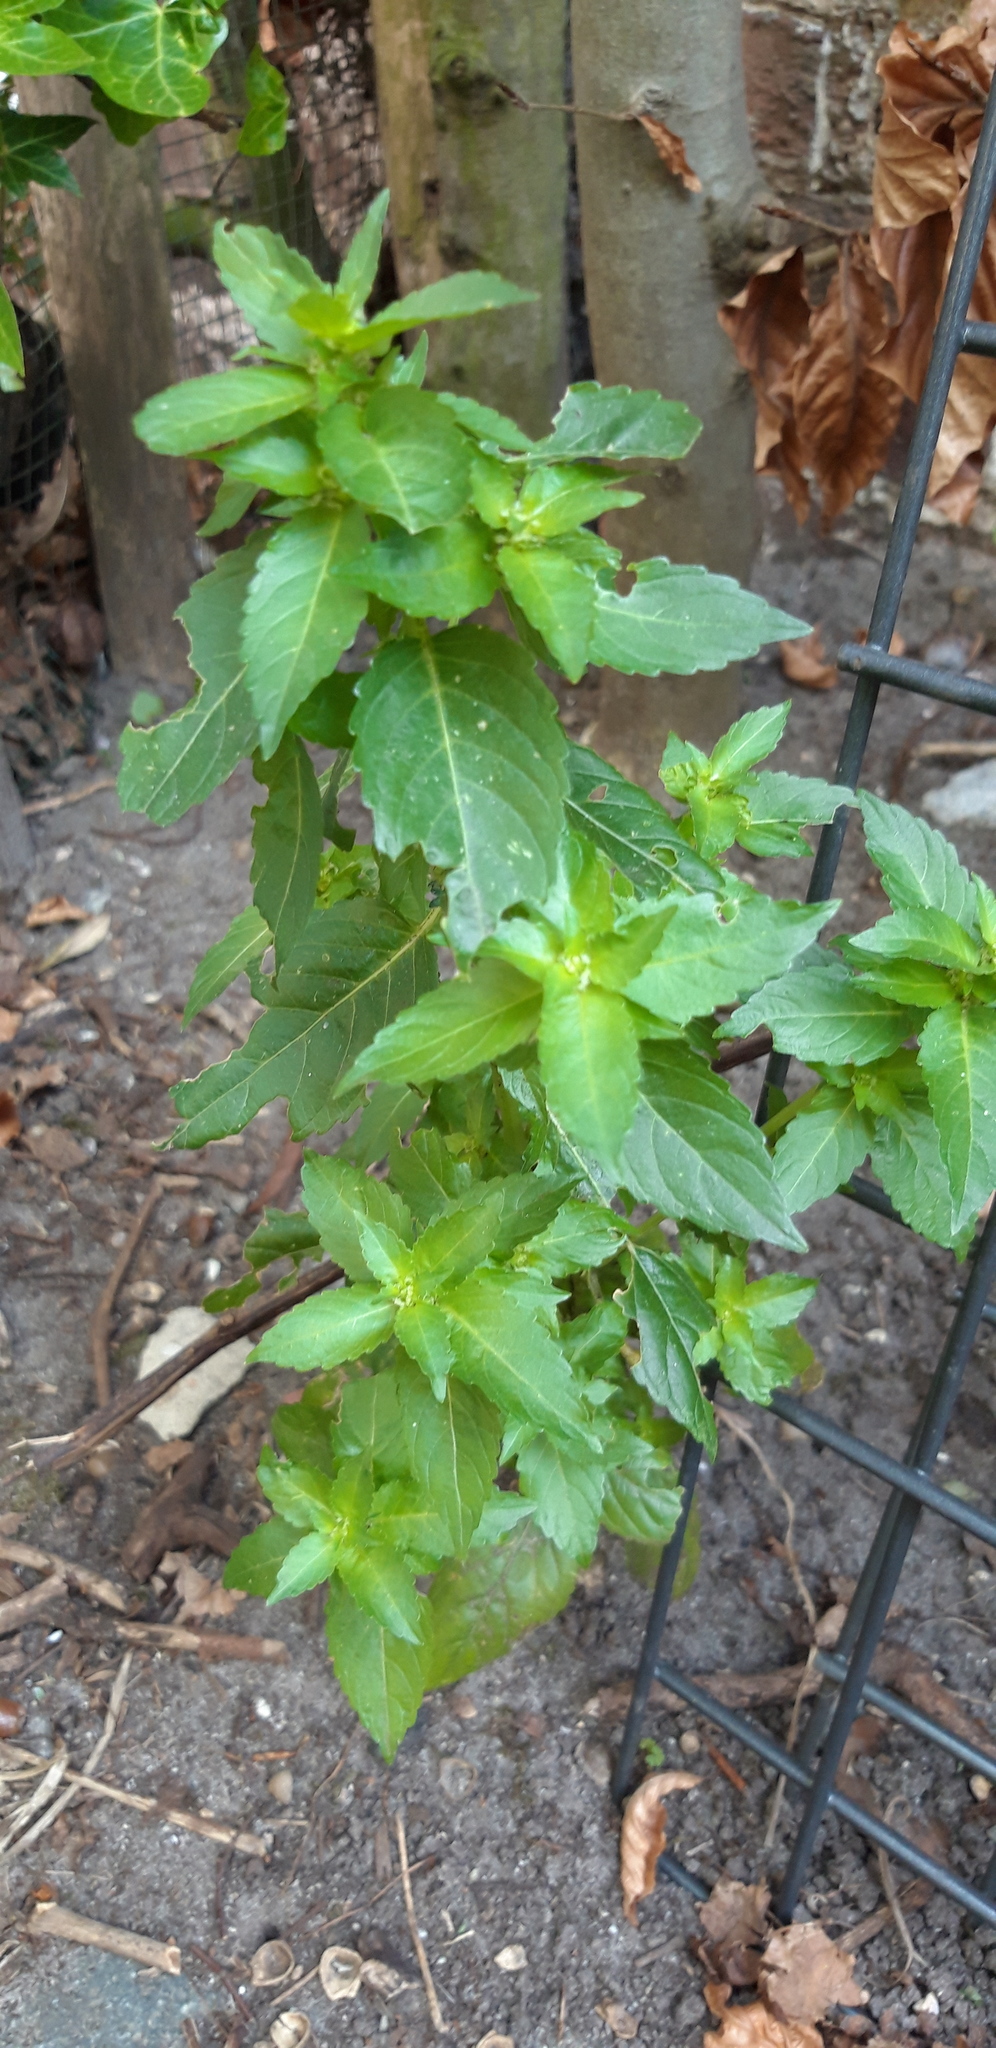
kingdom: Plantae
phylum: Tracheophyta
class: Magnoliopsida
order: Malpighiales
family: Euphorbiaceae
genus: Mercurialis
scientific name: Mercurialis annua
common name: Annual mercury
